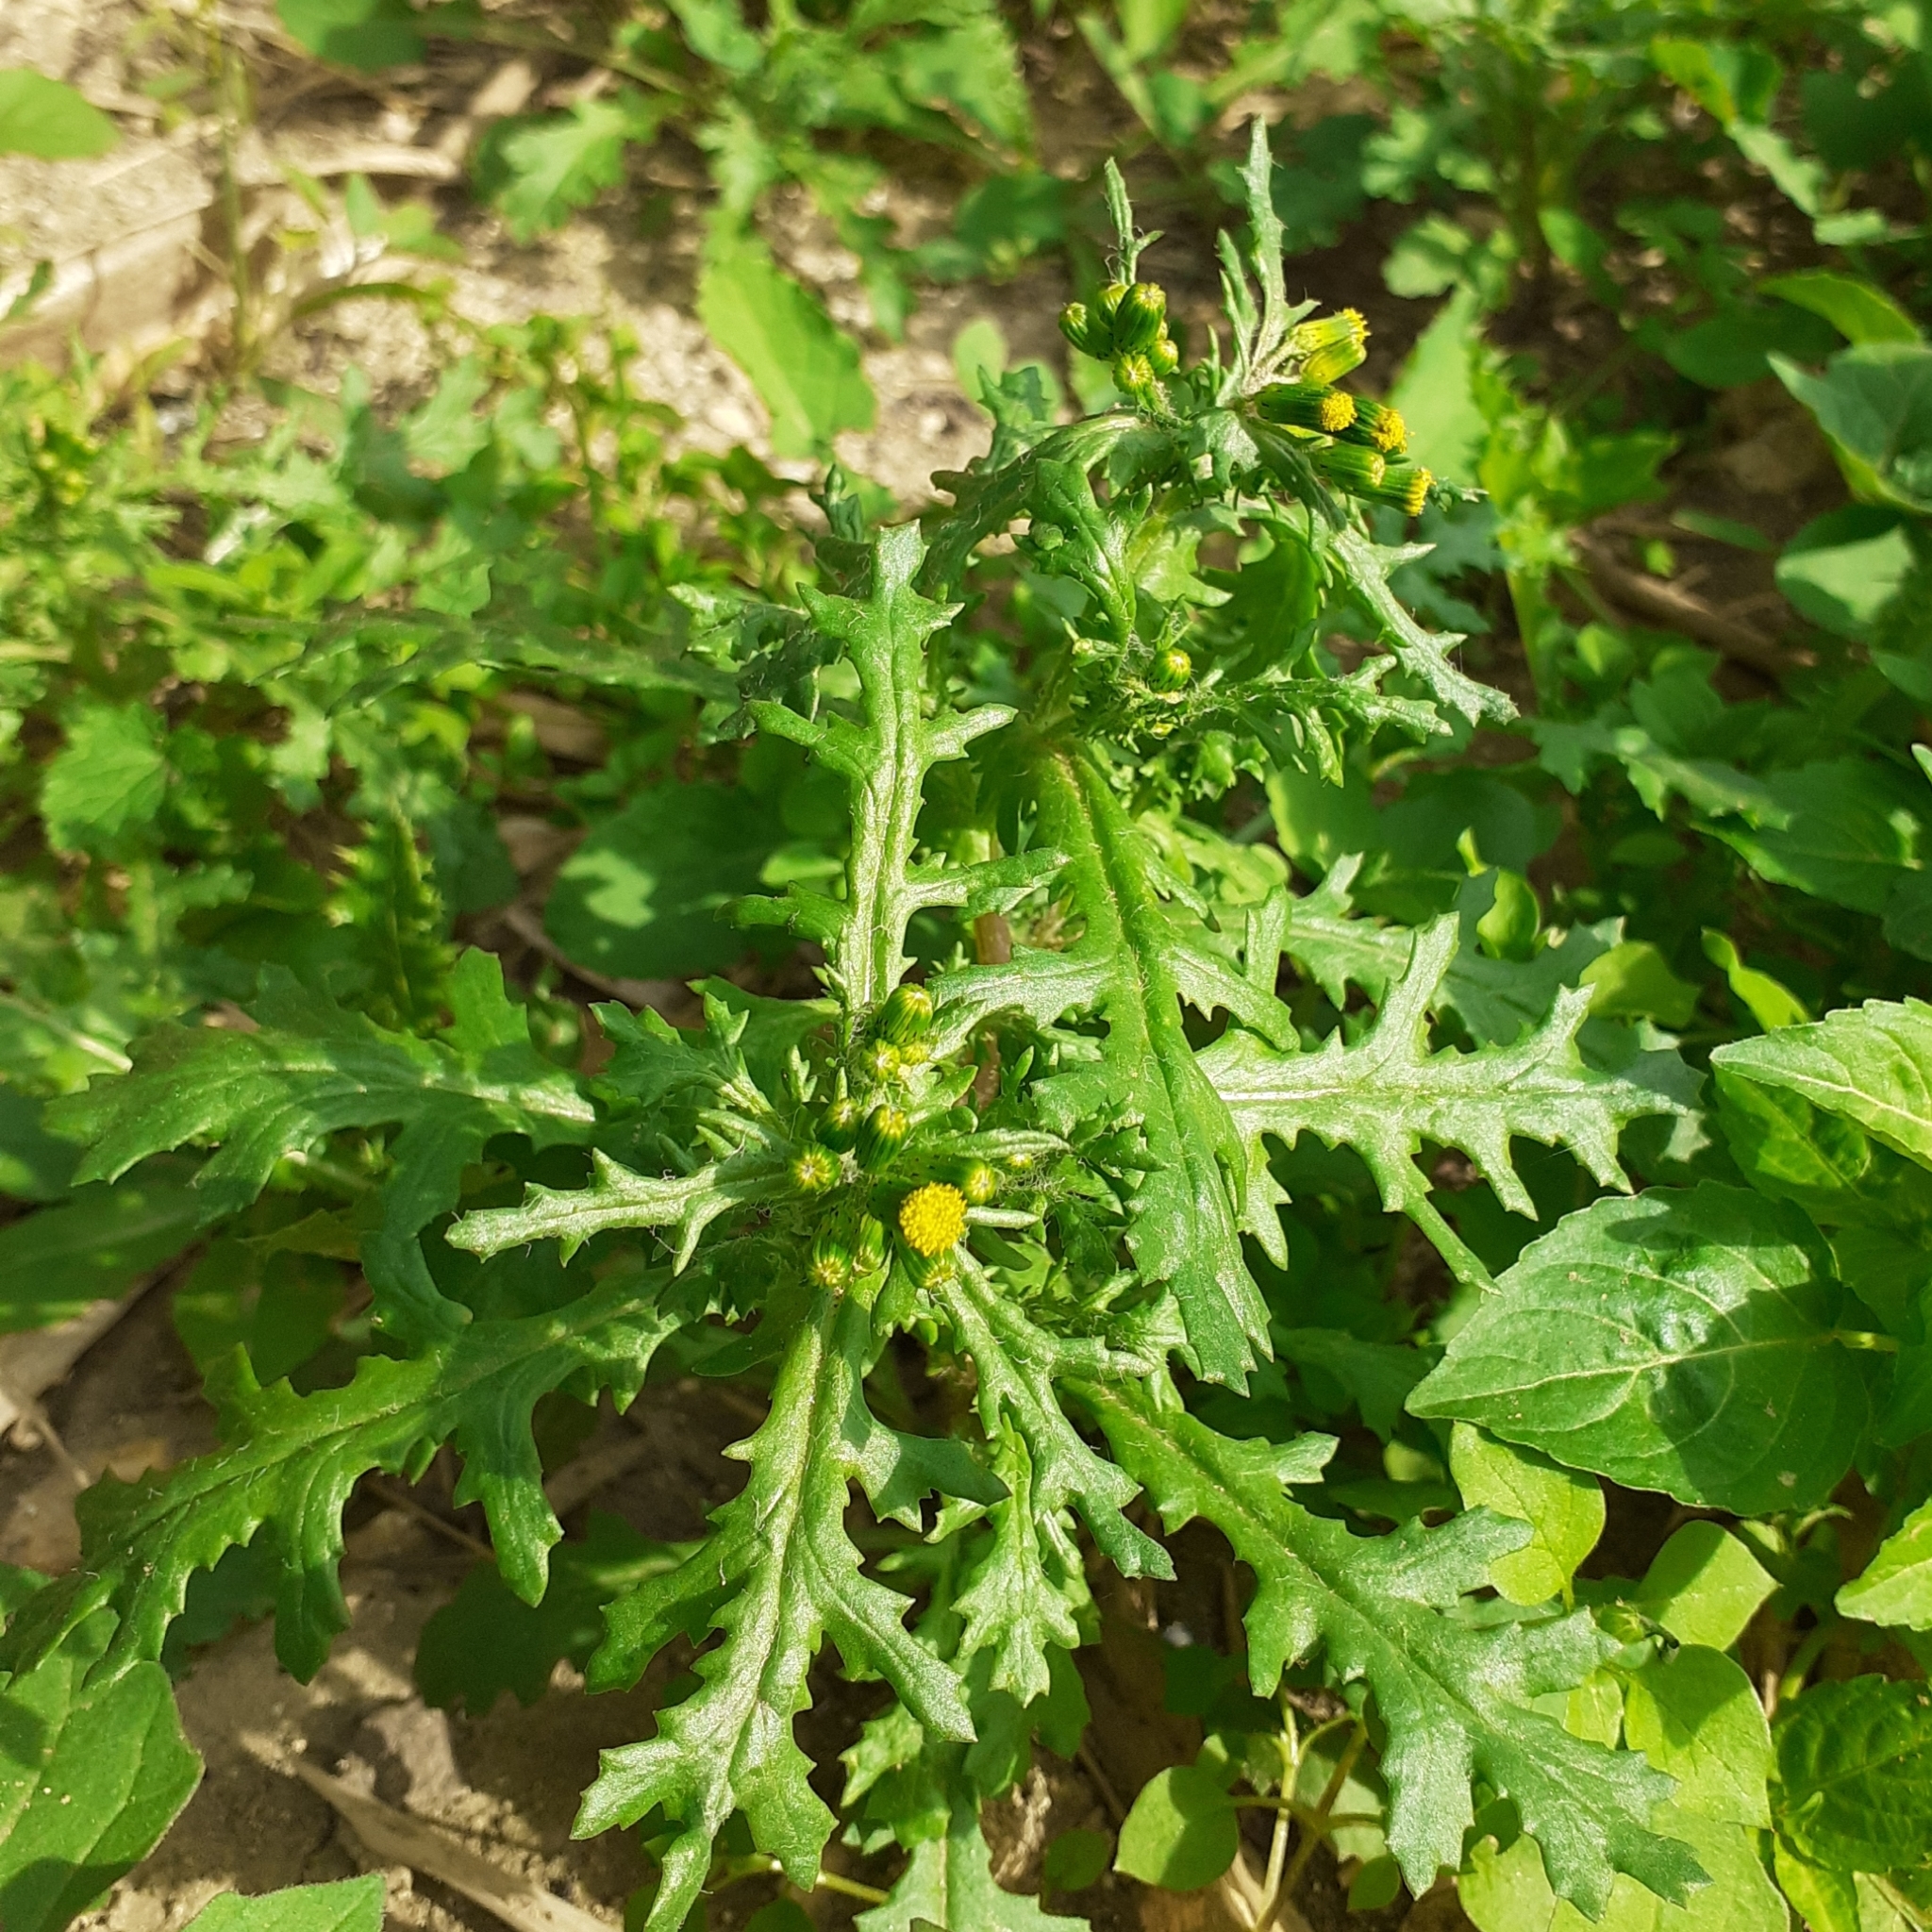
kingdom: Plantae
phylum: Tracheophyta
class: Magnoliopsida
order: Asterales
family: Asteraceae
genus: Senecio
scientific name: Senecio vulgaris
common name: Old-man-in-the-spring
